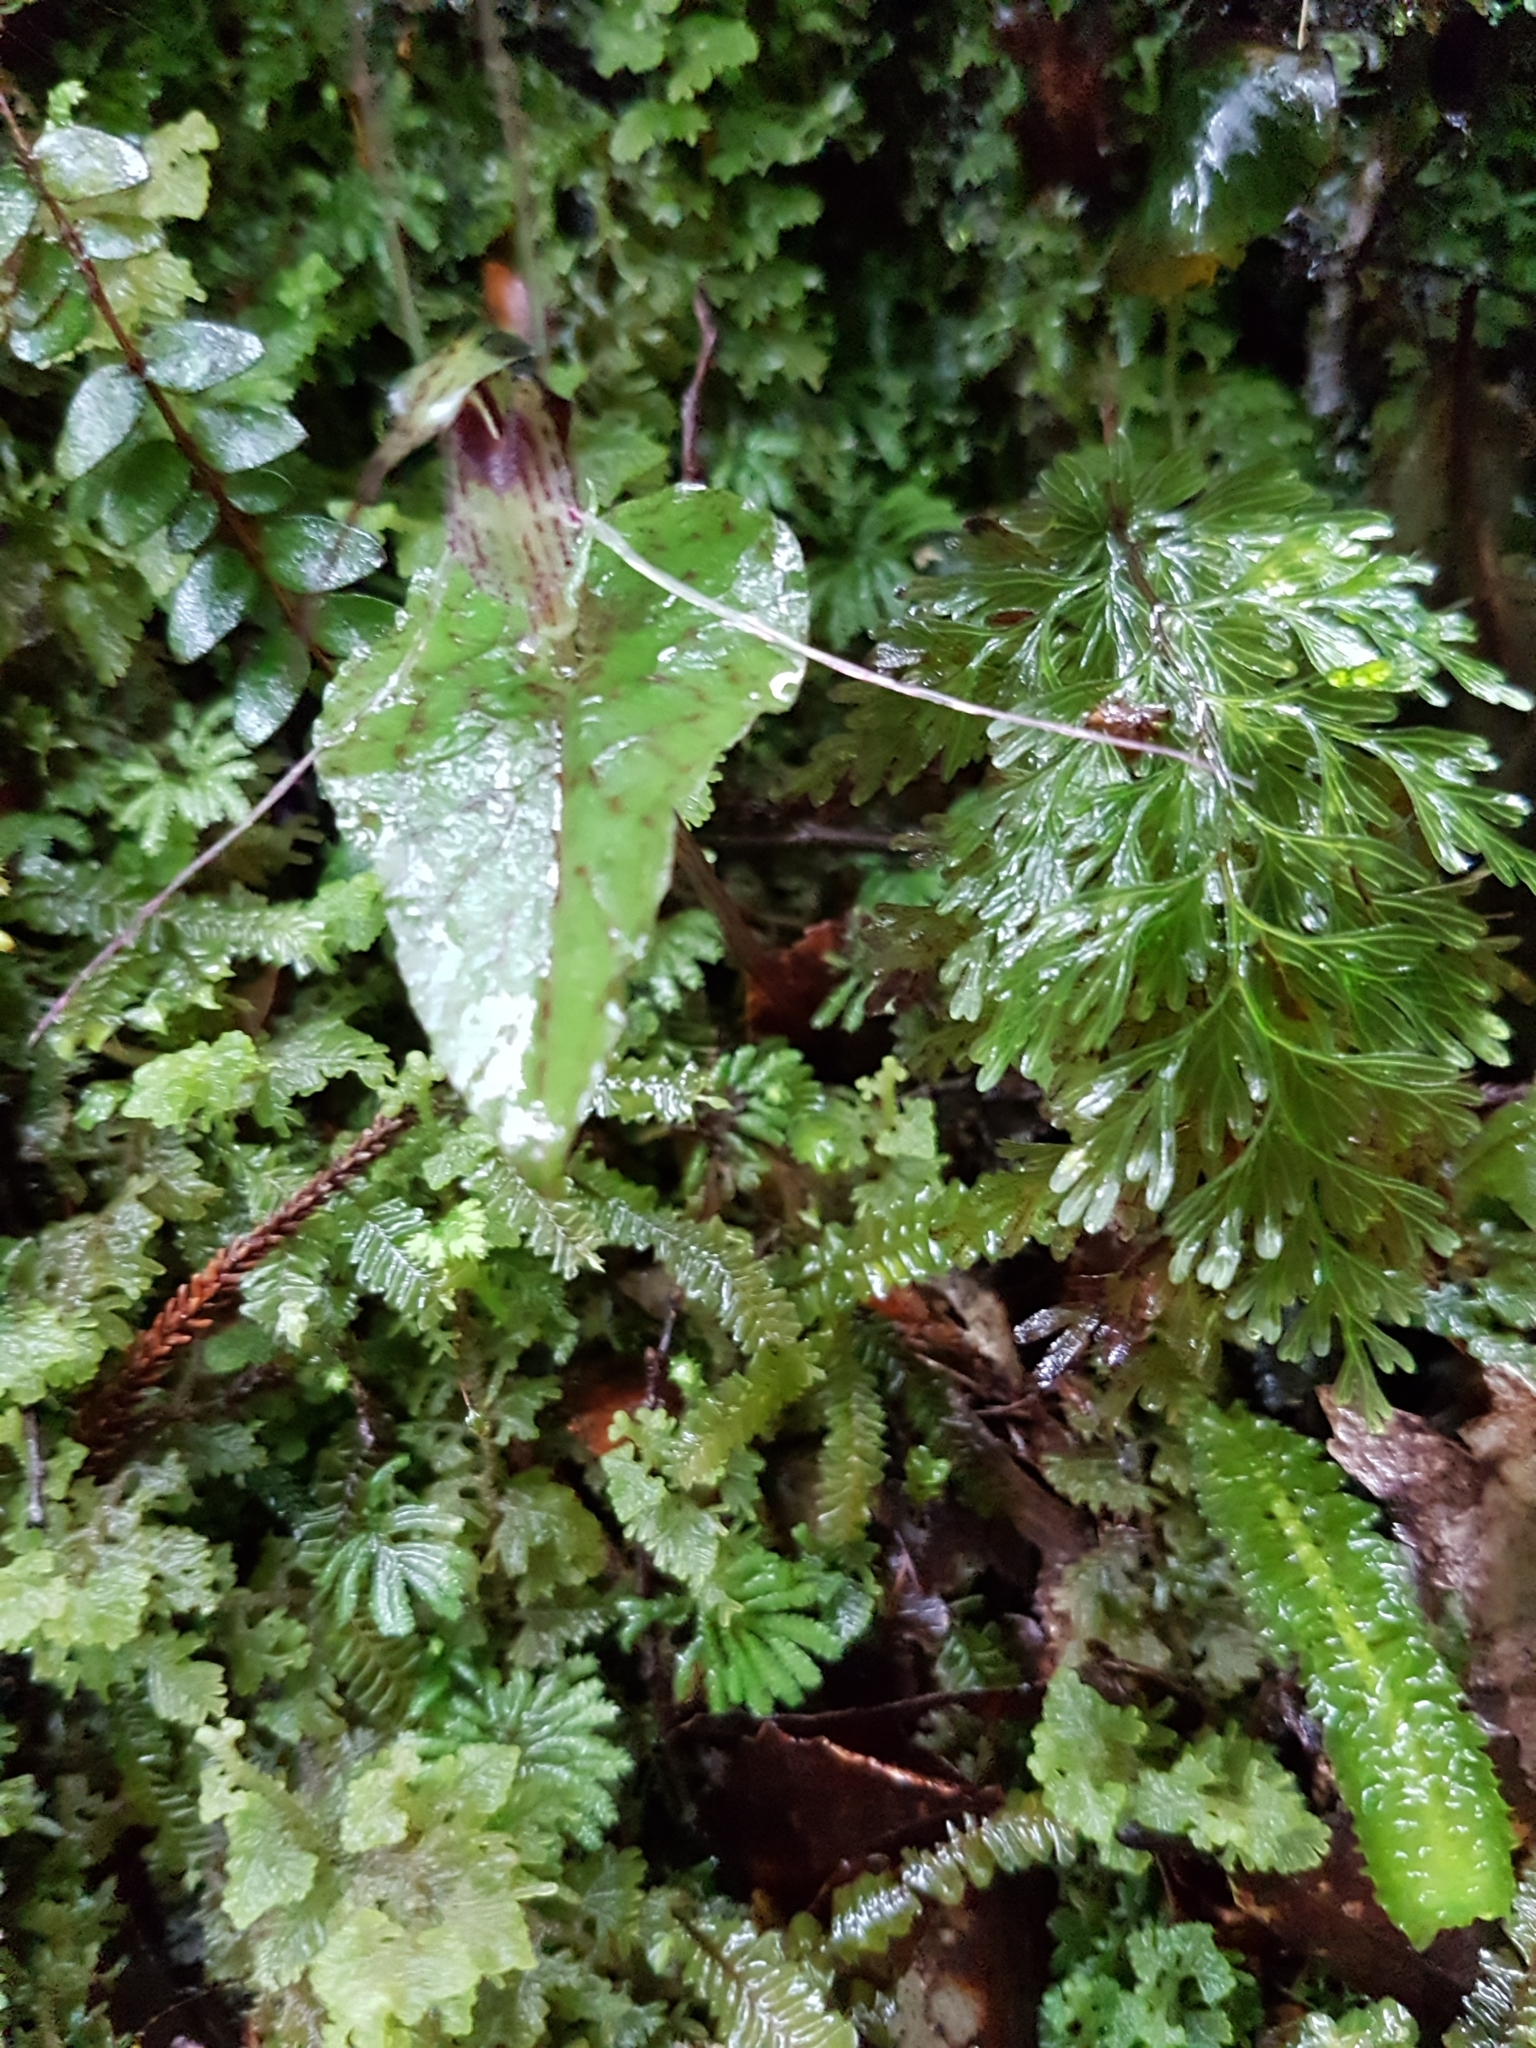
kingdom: Plantae
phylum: Tracheophyta
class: Liliopsida
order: Asparagales
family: Orchidaceae
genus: Corybas
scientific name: Corybas acuminatus
